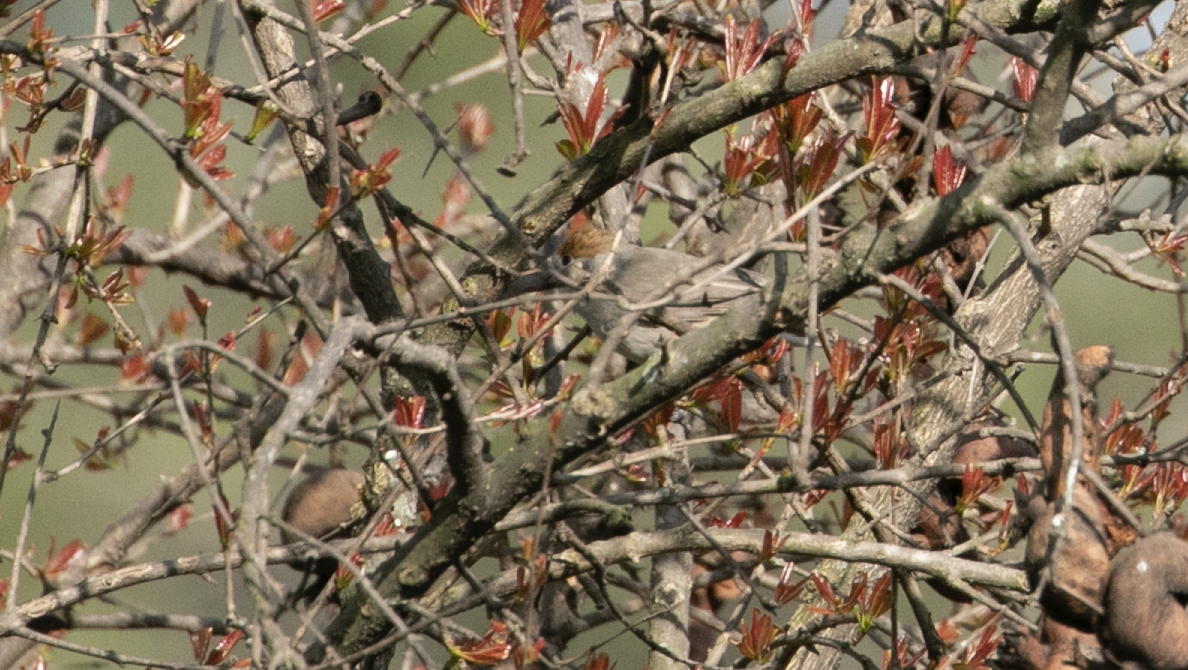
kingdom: Animalia
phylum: Chordata
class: Aves
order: Passeriformes
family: Sylviidae
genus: Sylvia
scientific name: Sylvia atricapilla
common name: Eurasian blackcap
